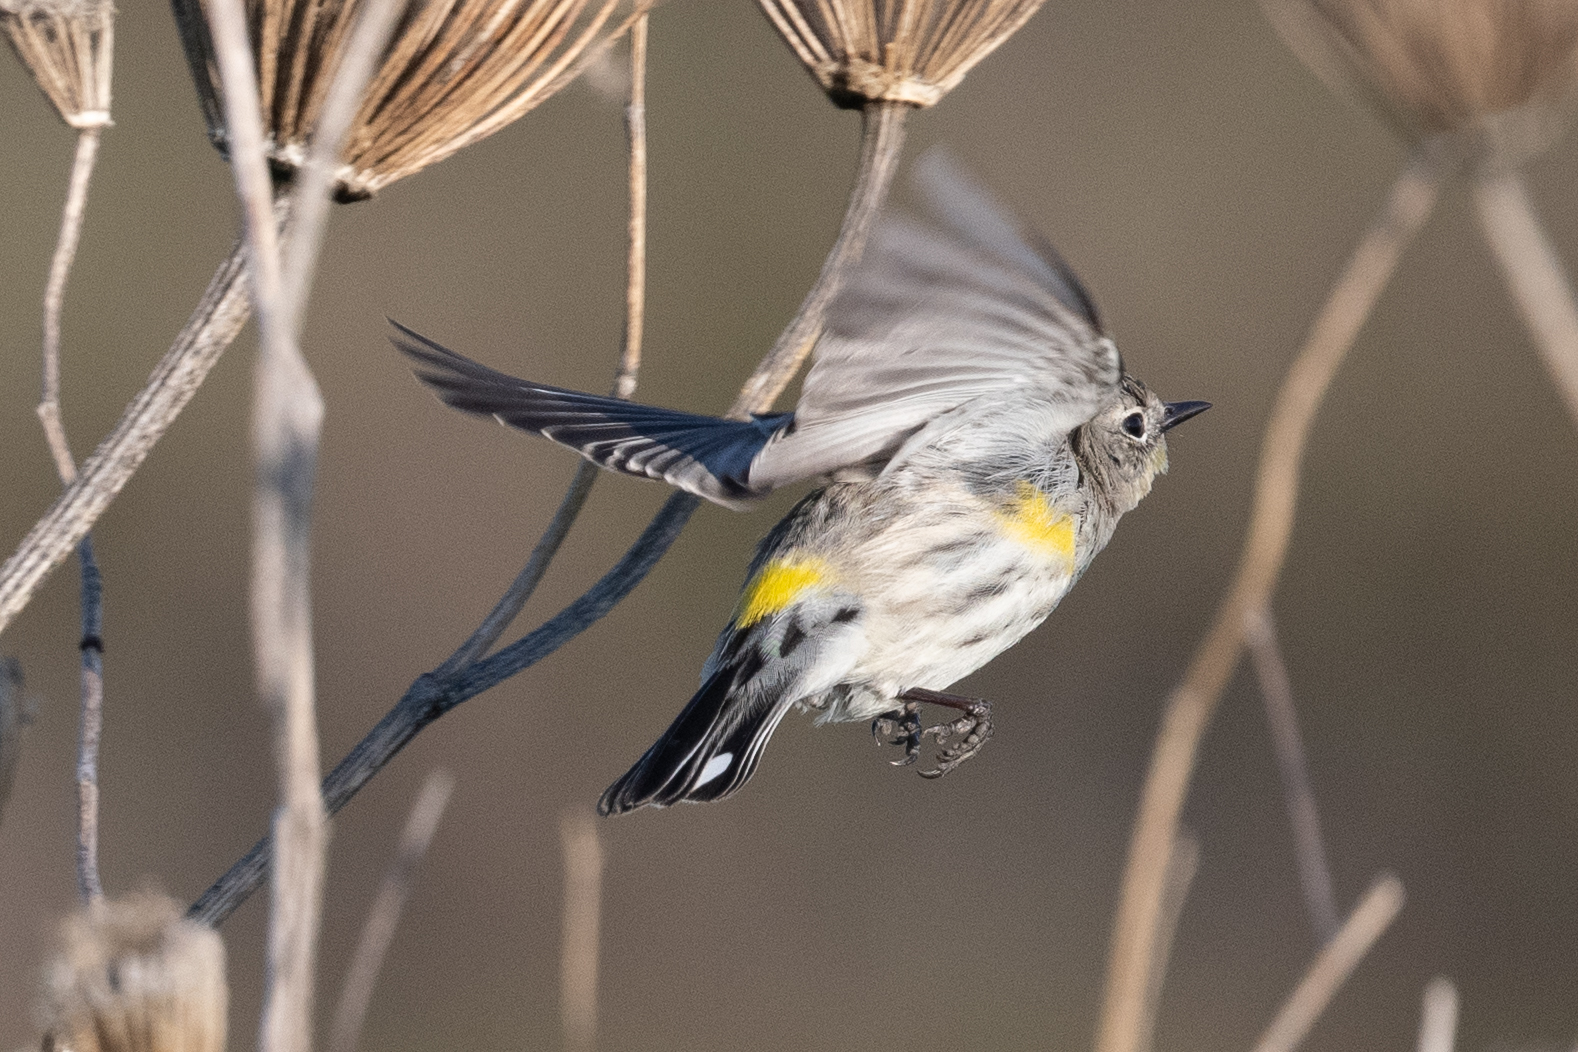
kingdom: Animalia
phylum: Chordata
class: Aves
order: Passeriformes
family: Parulidae
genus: Setophaga
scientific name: Setophaga coronata
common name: Myrtle warbler
